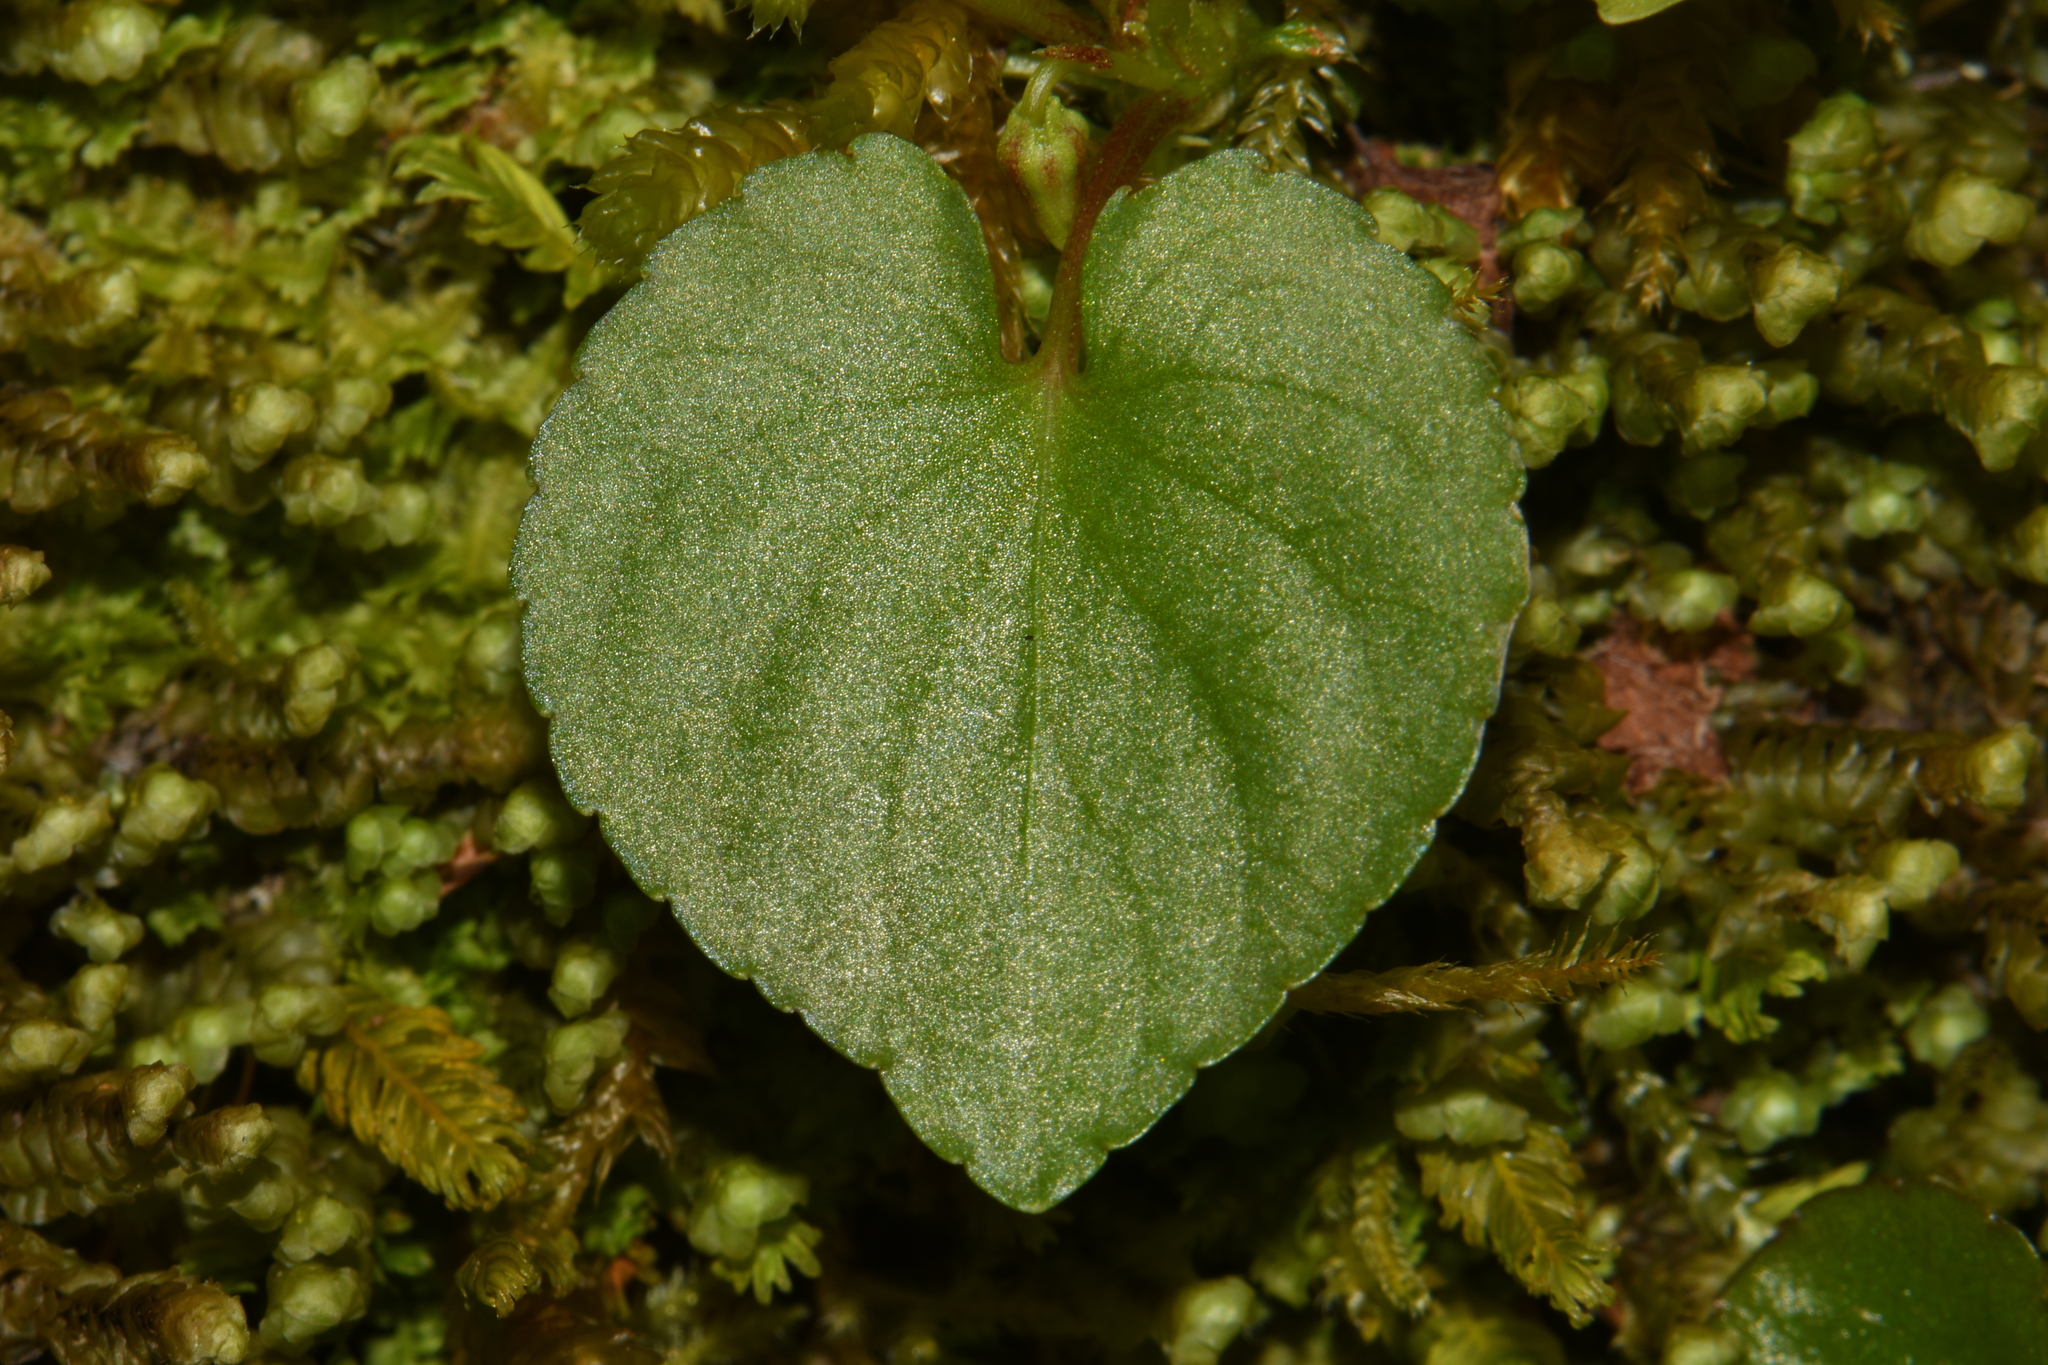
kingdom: Plantae
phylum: Tracheophyta
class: Magnoliopsida
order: Malpighiales
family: Violaceae
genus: Viola
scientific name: Viola blanda
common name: Sweet white violet
